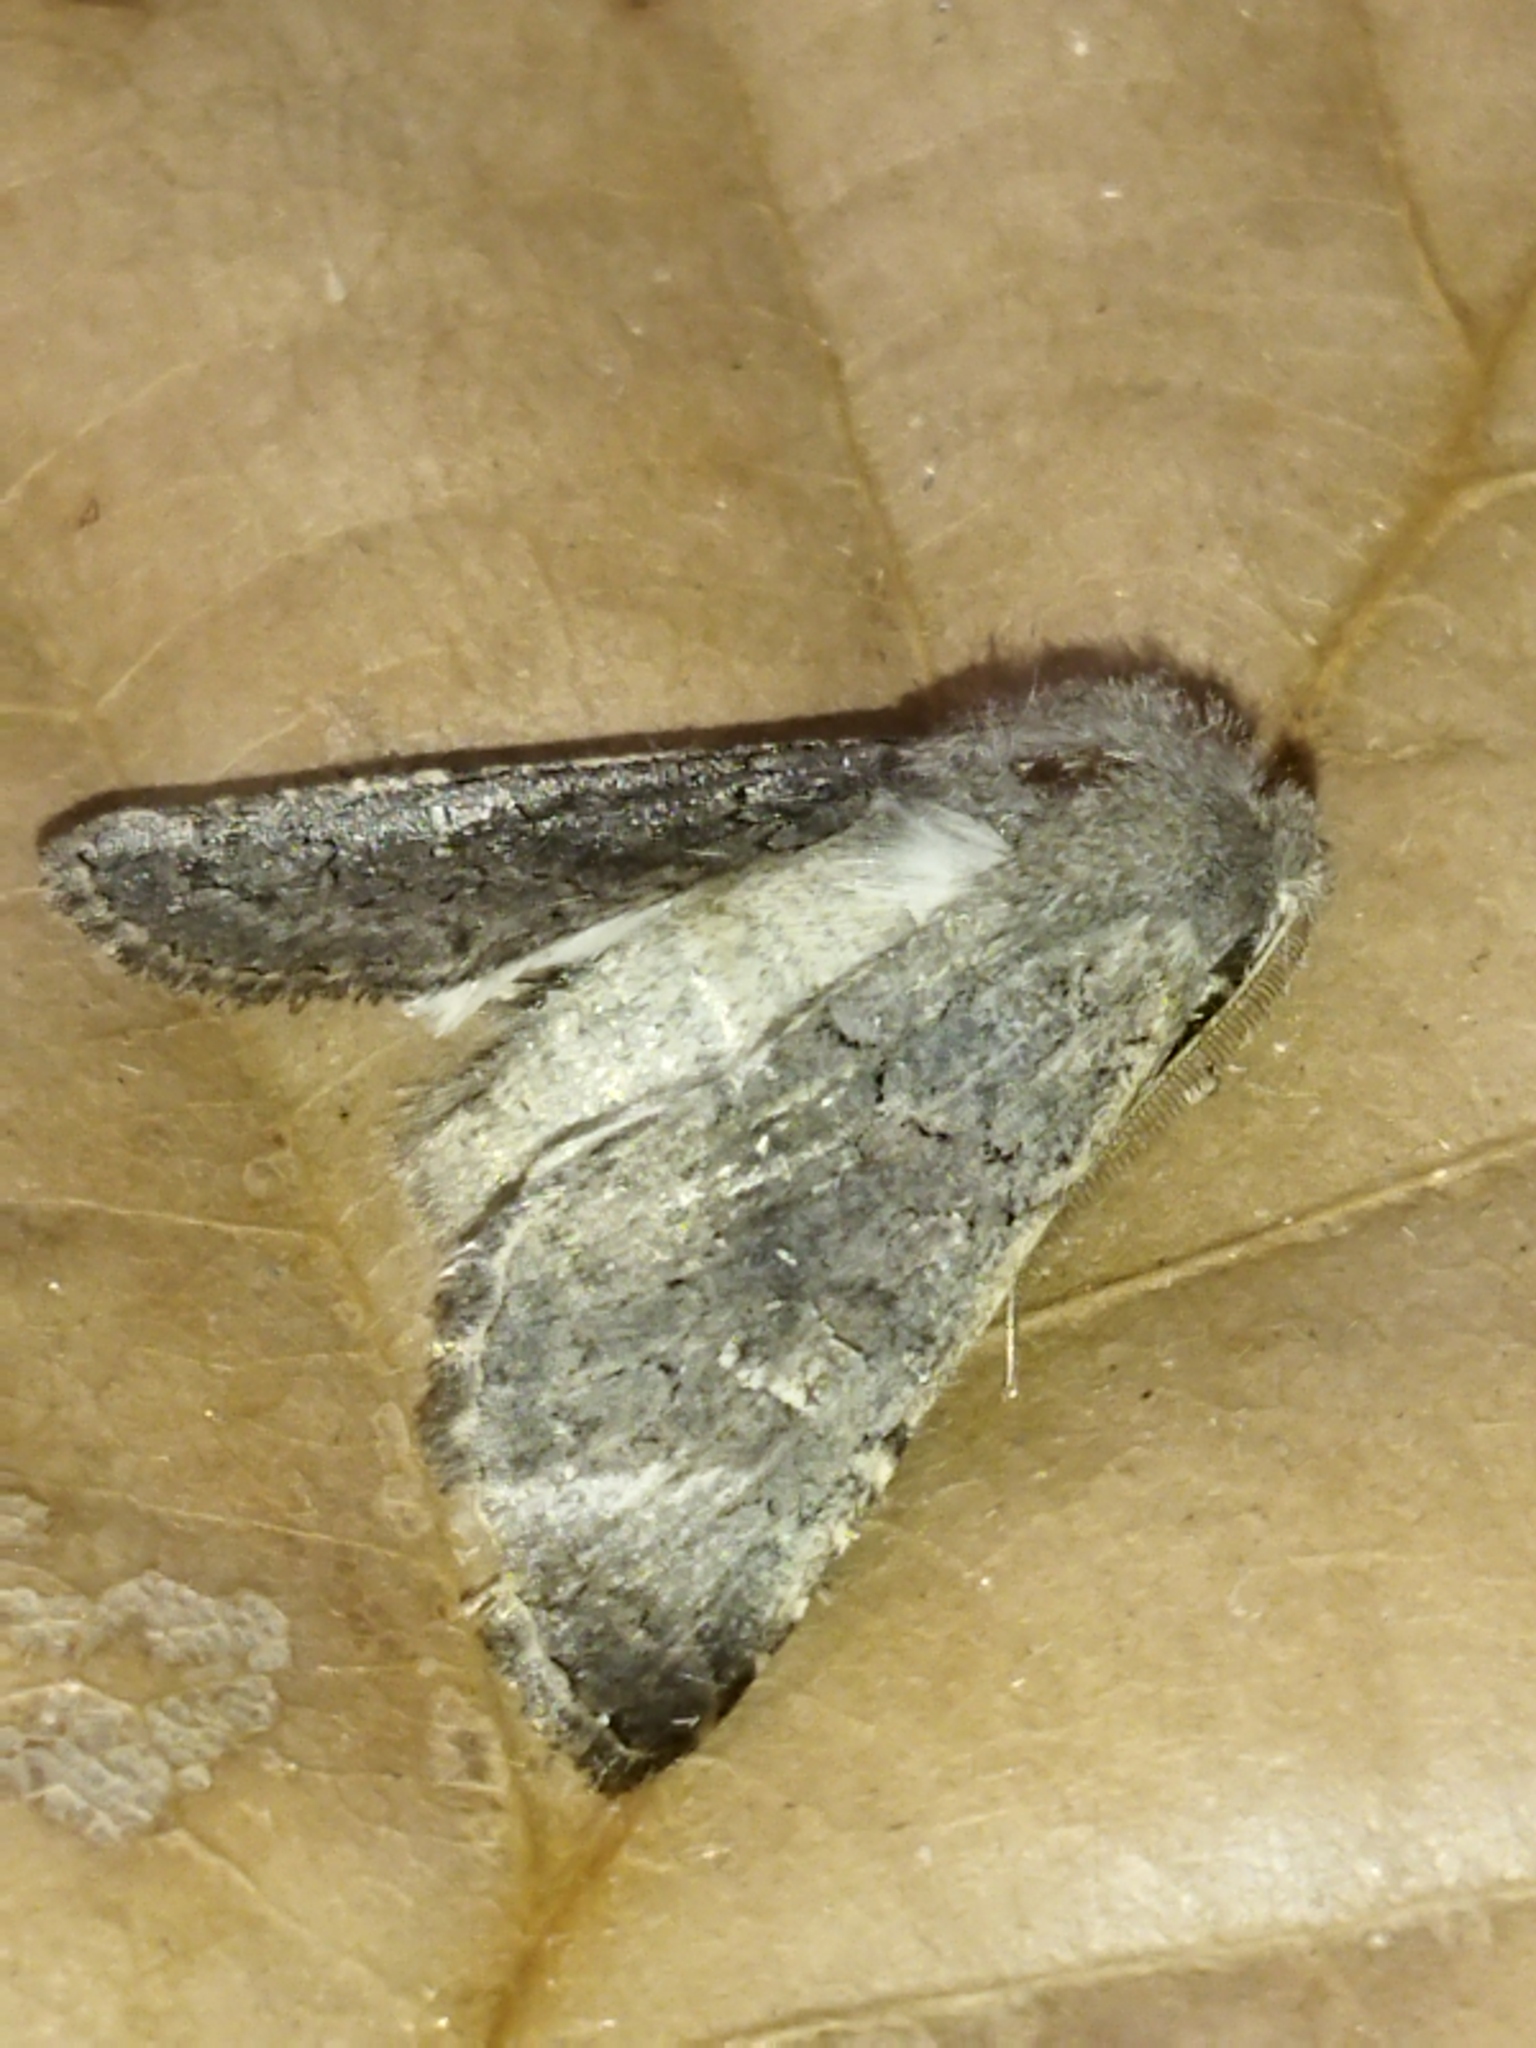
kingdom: Animalia
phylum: Arthropoda
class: Insecta
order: Lepidoptera
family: Noctuidae
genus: Aporophyla
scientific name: Aporophyla lutulenta
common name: Deep-brown dart
